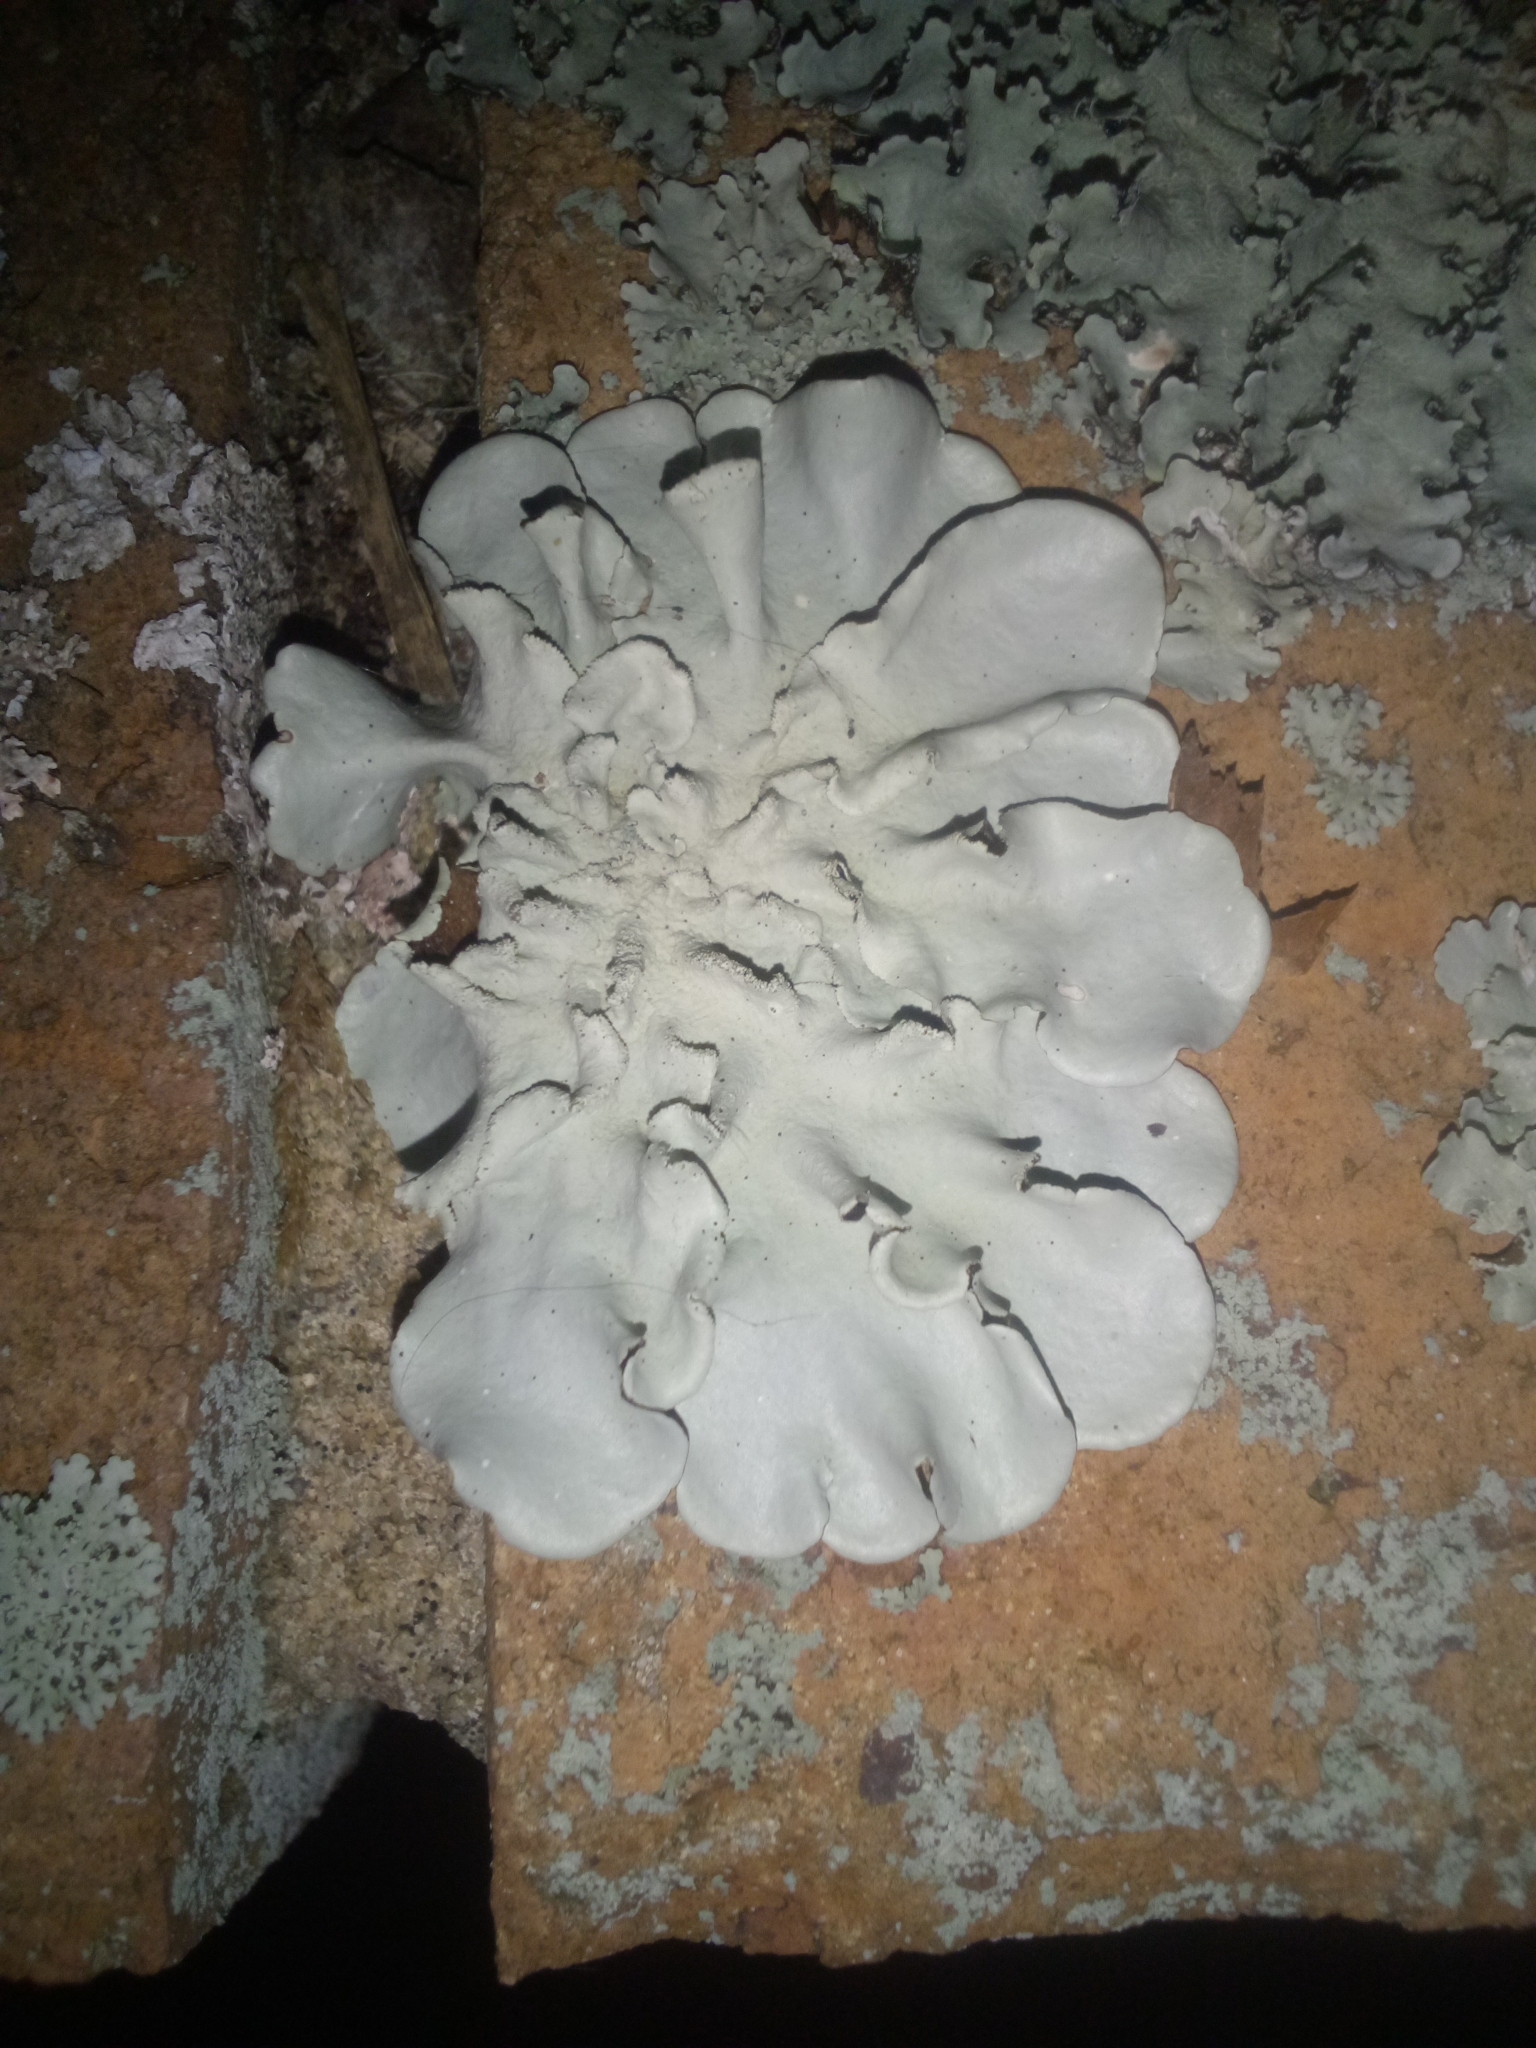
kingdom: Fungi
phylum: Ascomycota
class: Lecanoromycetes
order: Lecanorales
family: Parmeliaceae
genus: Parmotrema
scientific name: Parmotrema tinctorum
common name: Old gray ruffles
